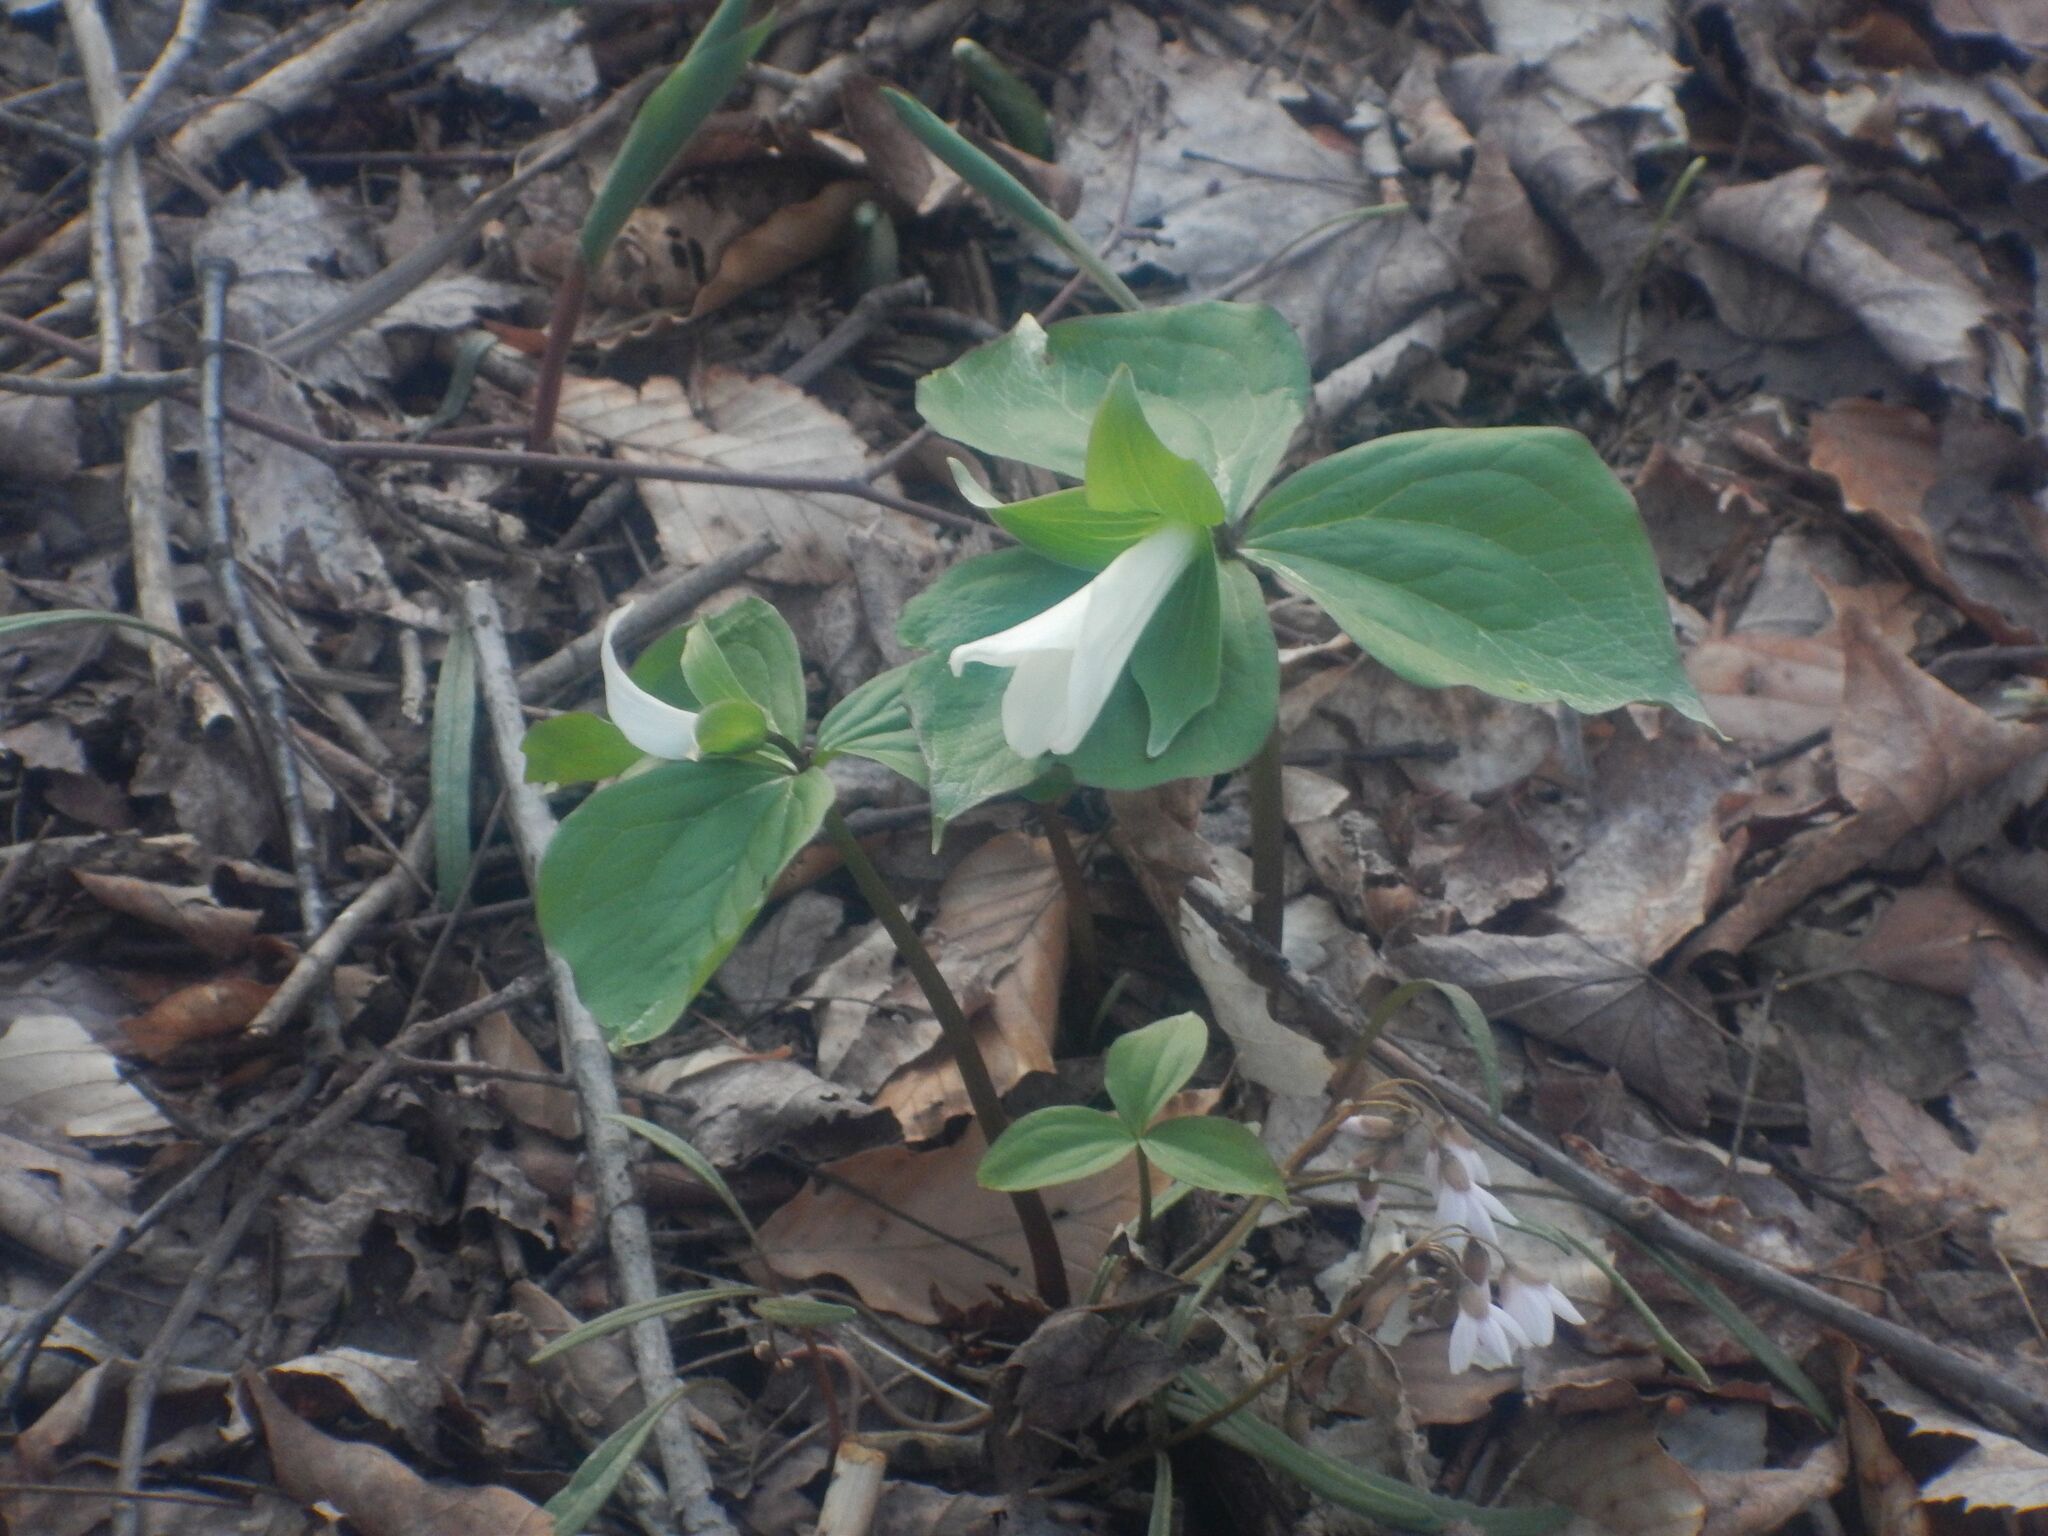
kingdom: Plantae
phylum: Tracheophyta
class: Liliopsida
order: Liliales
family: Melanthiaceae
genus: Trillium
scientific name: Trillium grandiflorum
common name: Great white trillium
